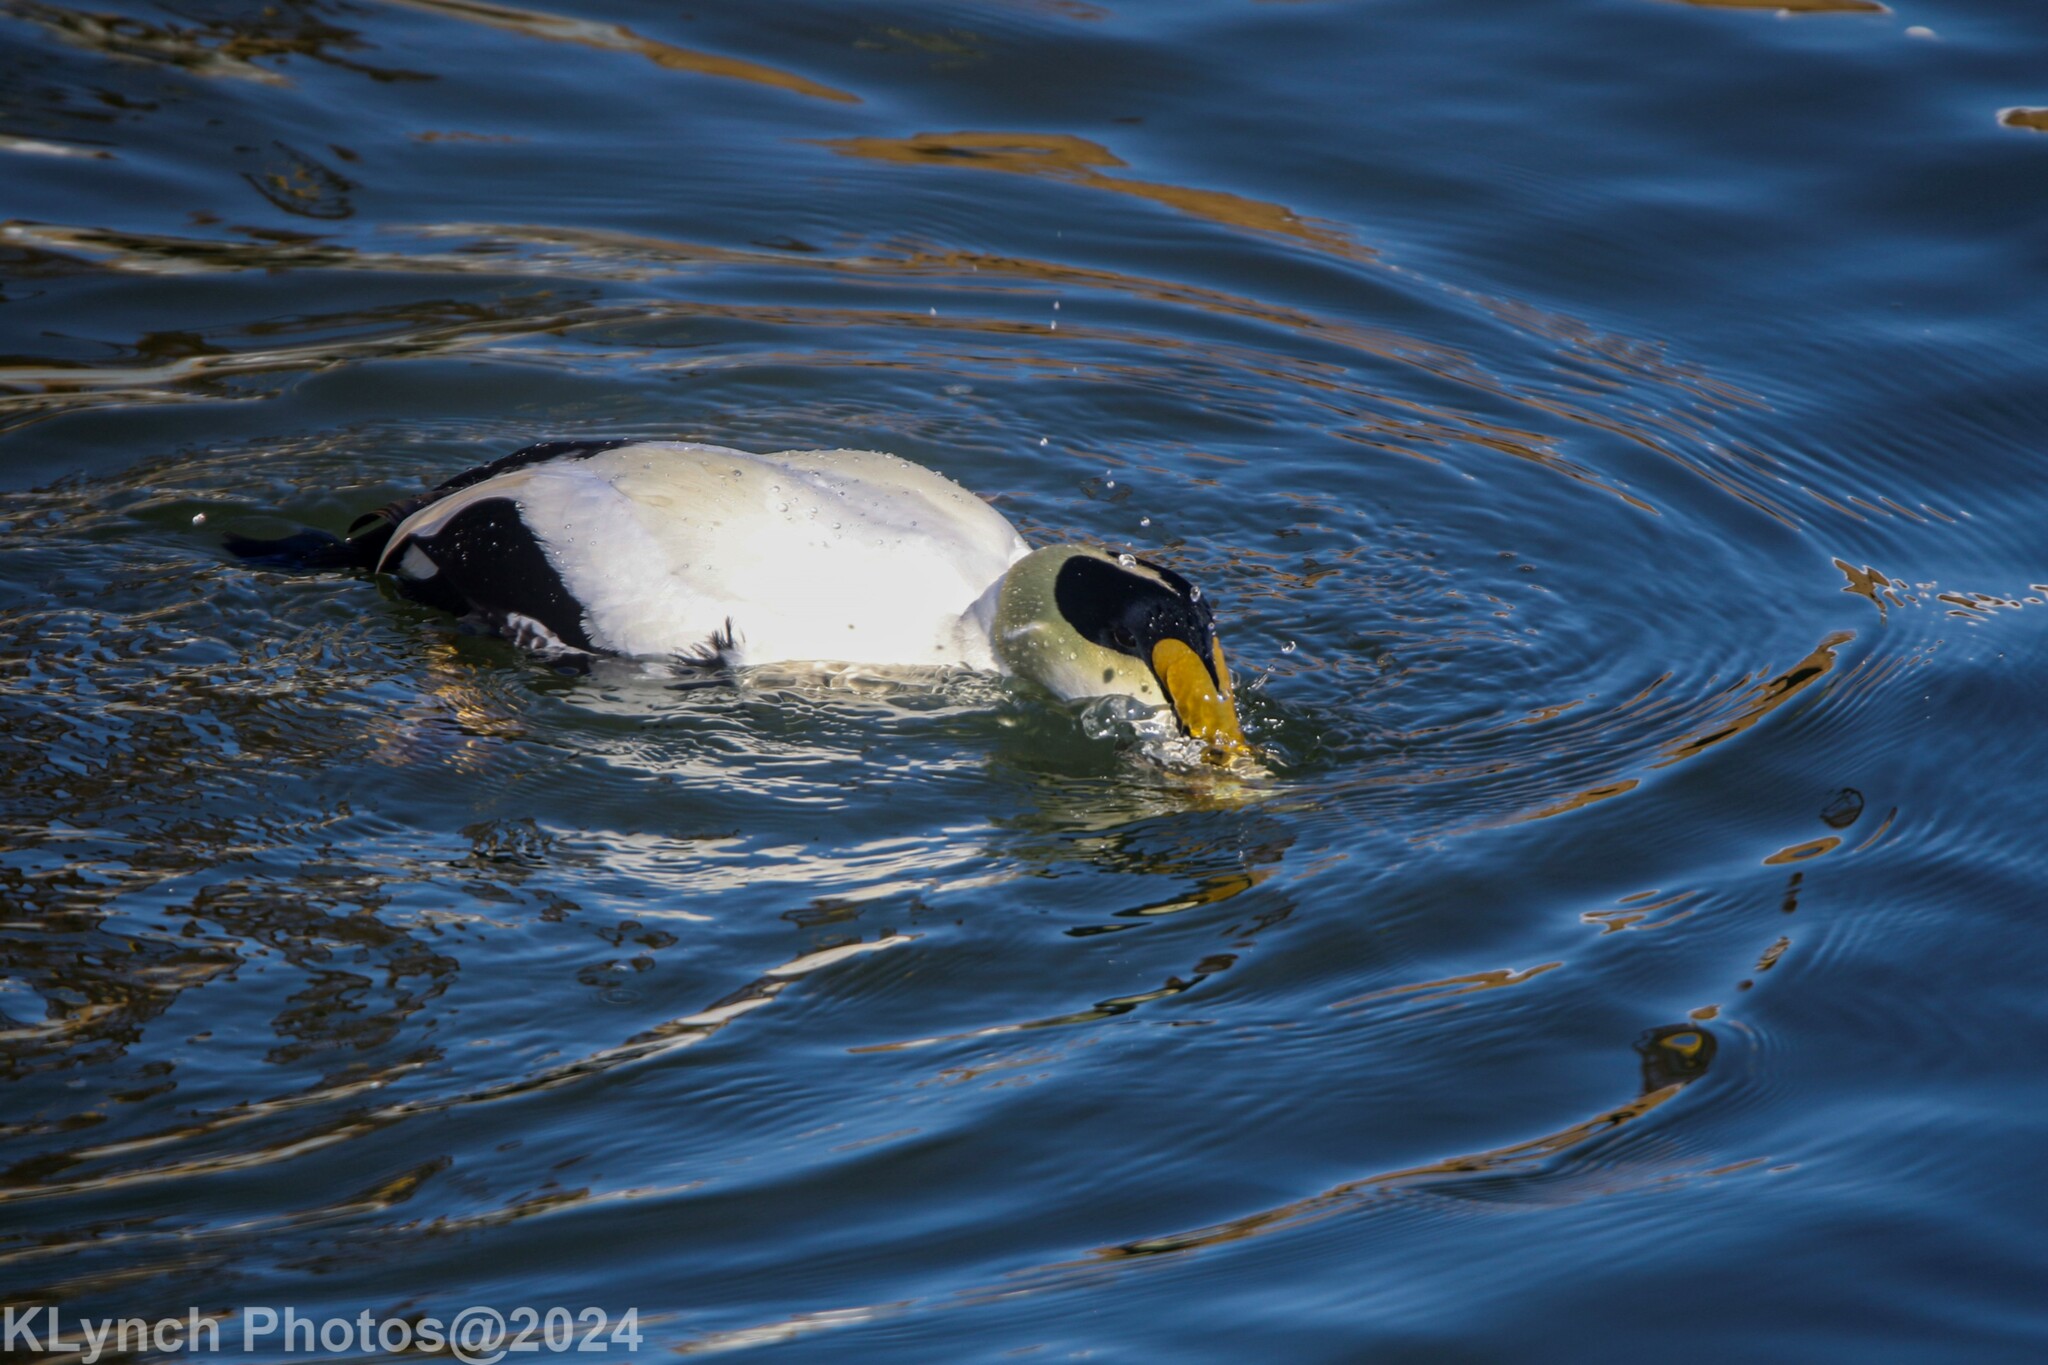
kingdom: Animalia
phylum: Chordata
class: Aves
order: Anseriformes
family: Anatidae
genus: Somateria
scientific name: Somateria mollissima
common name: Common eider
